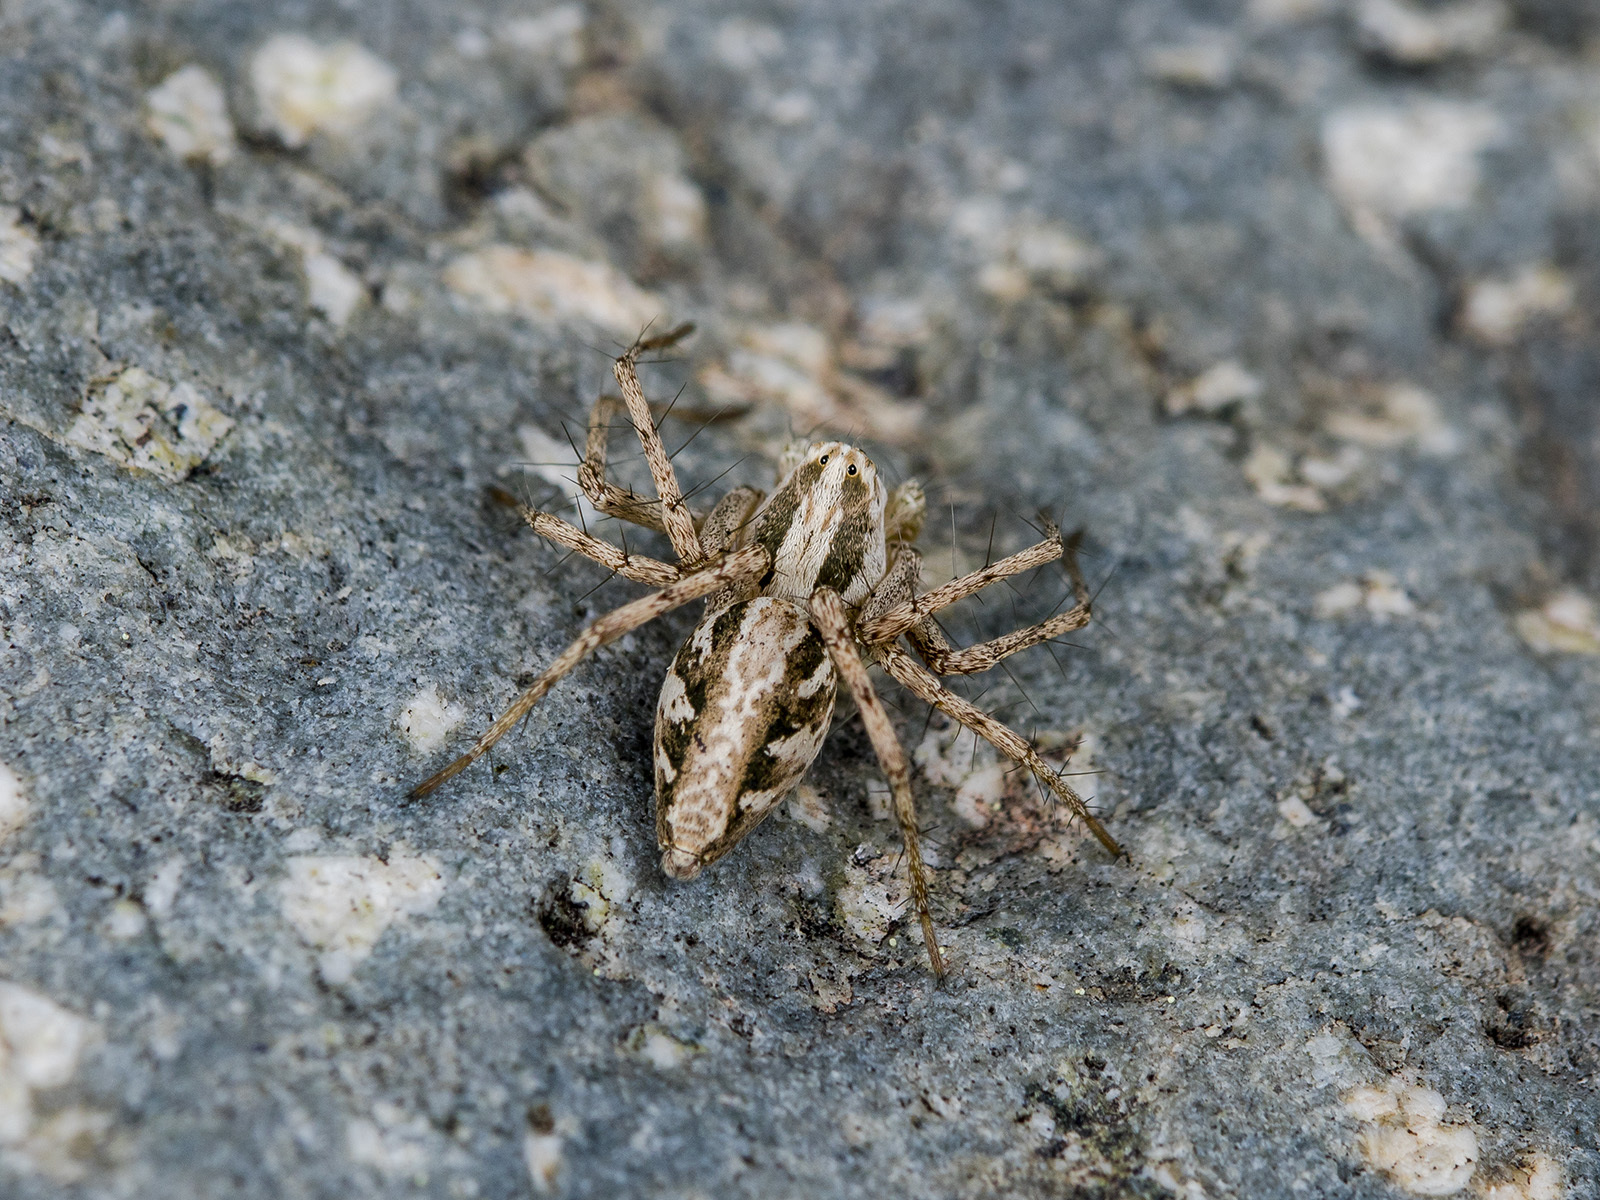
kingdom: Animalia
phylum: Arthropoda
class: Arachnida
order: Araneae
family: Oxyopidae
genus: Oxyopes
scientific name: Oxyopes globifer
